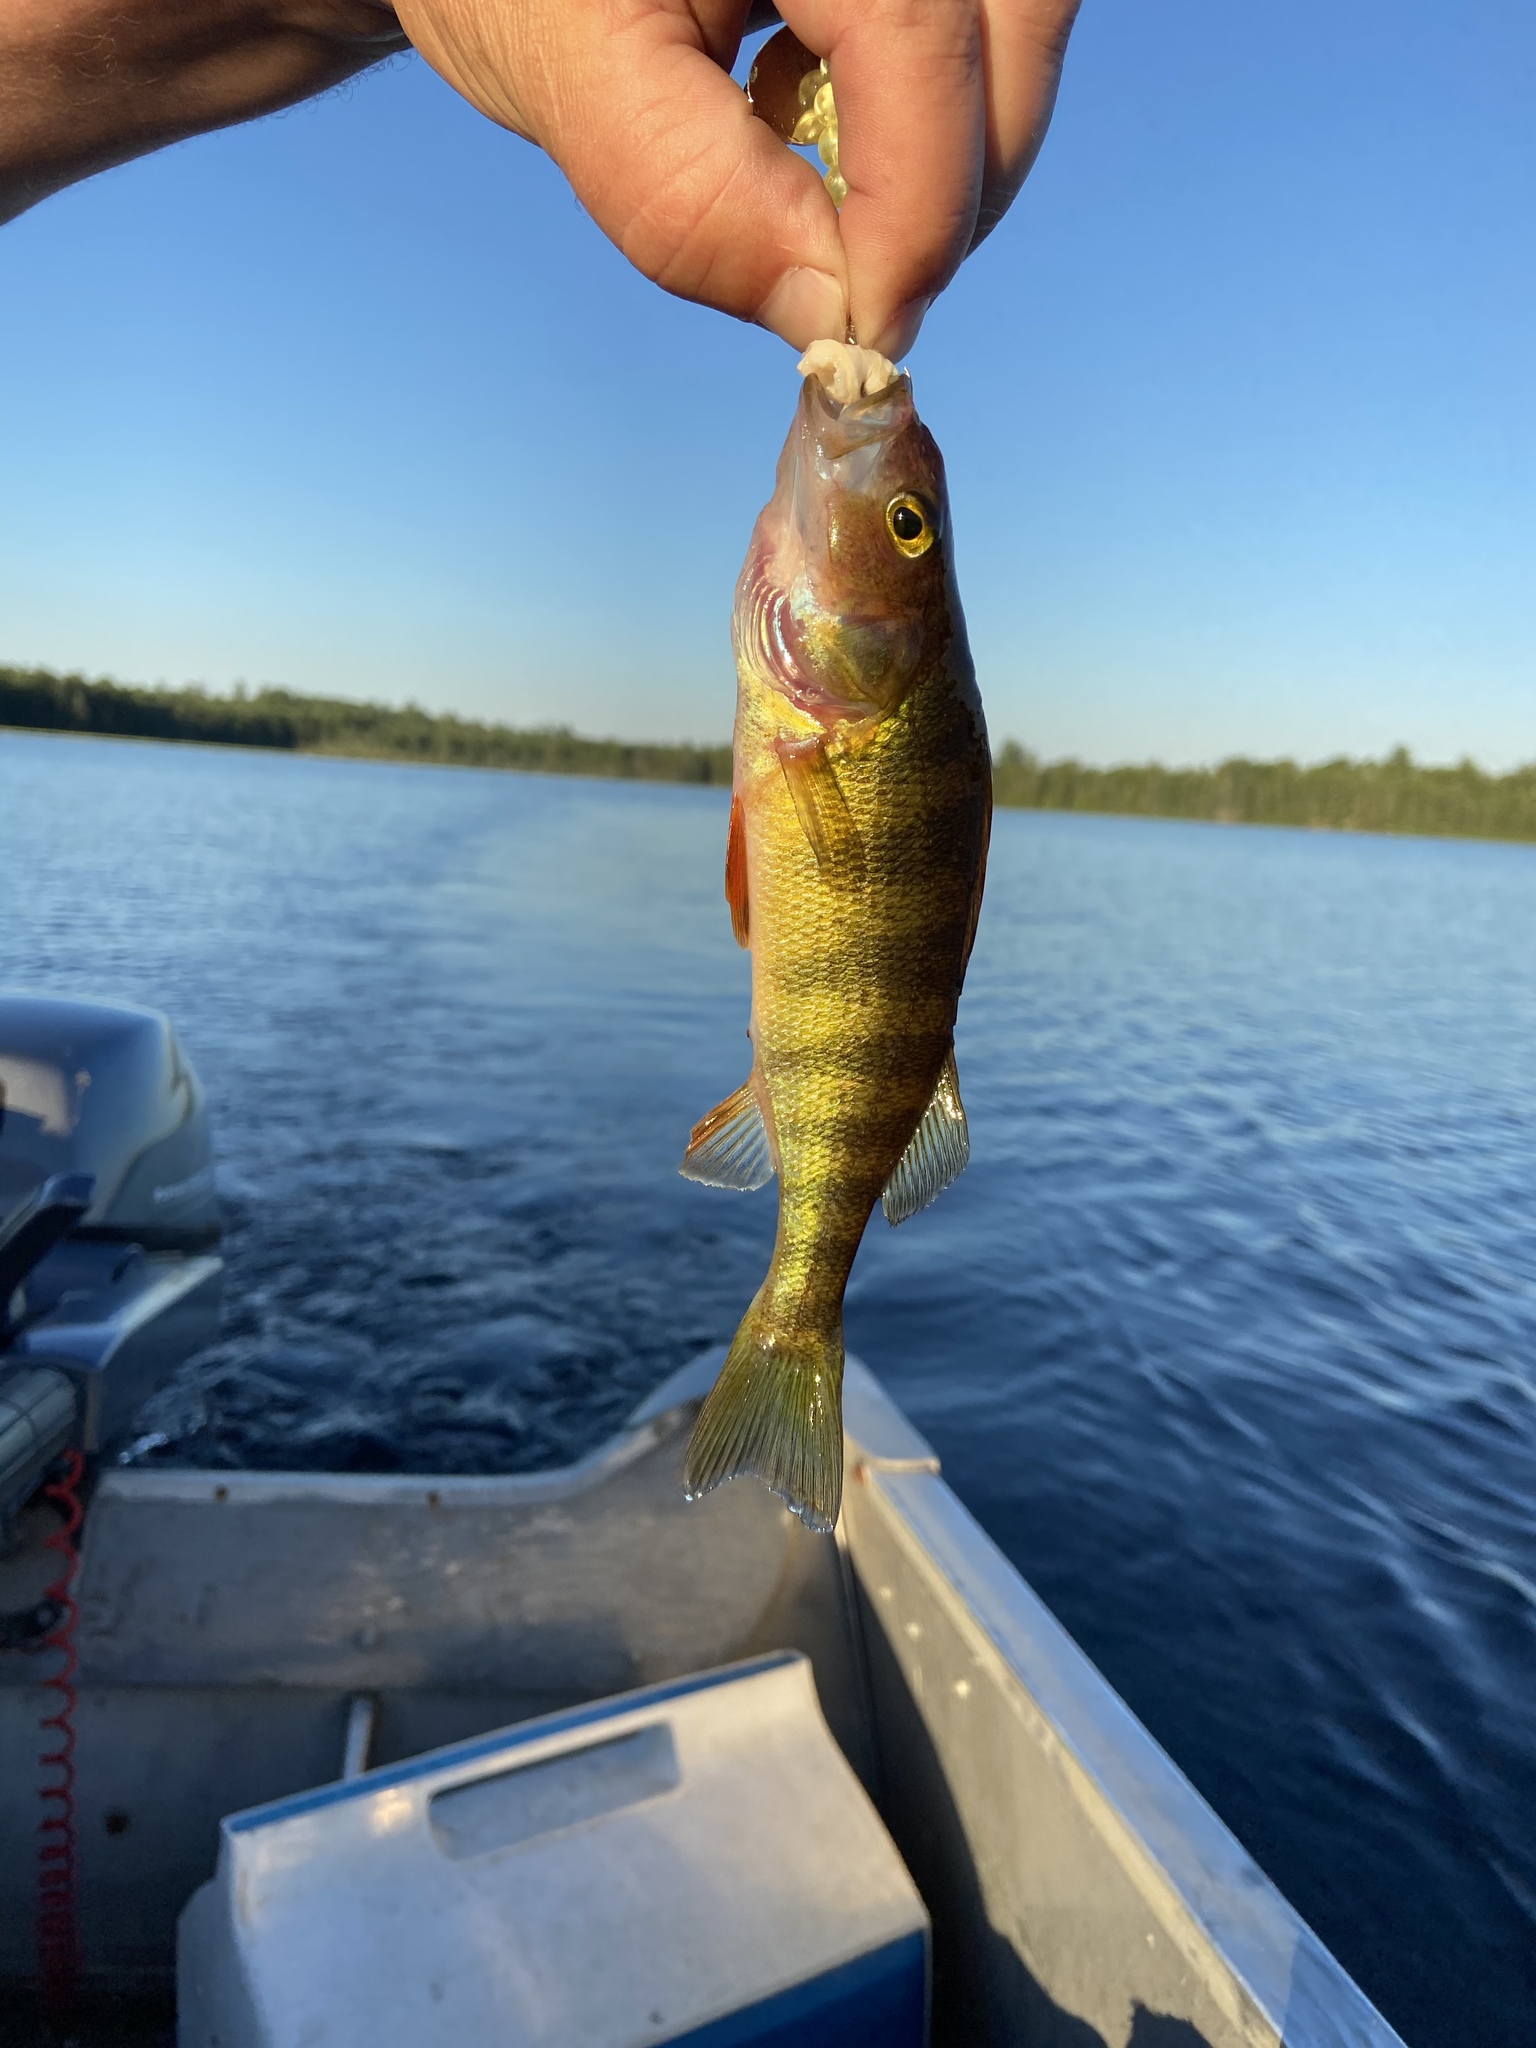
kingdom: Animalia
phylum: Chordata
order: Perciformes
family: Percidae
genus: Perca
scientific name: Perca flavescens
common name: Yellow perch
